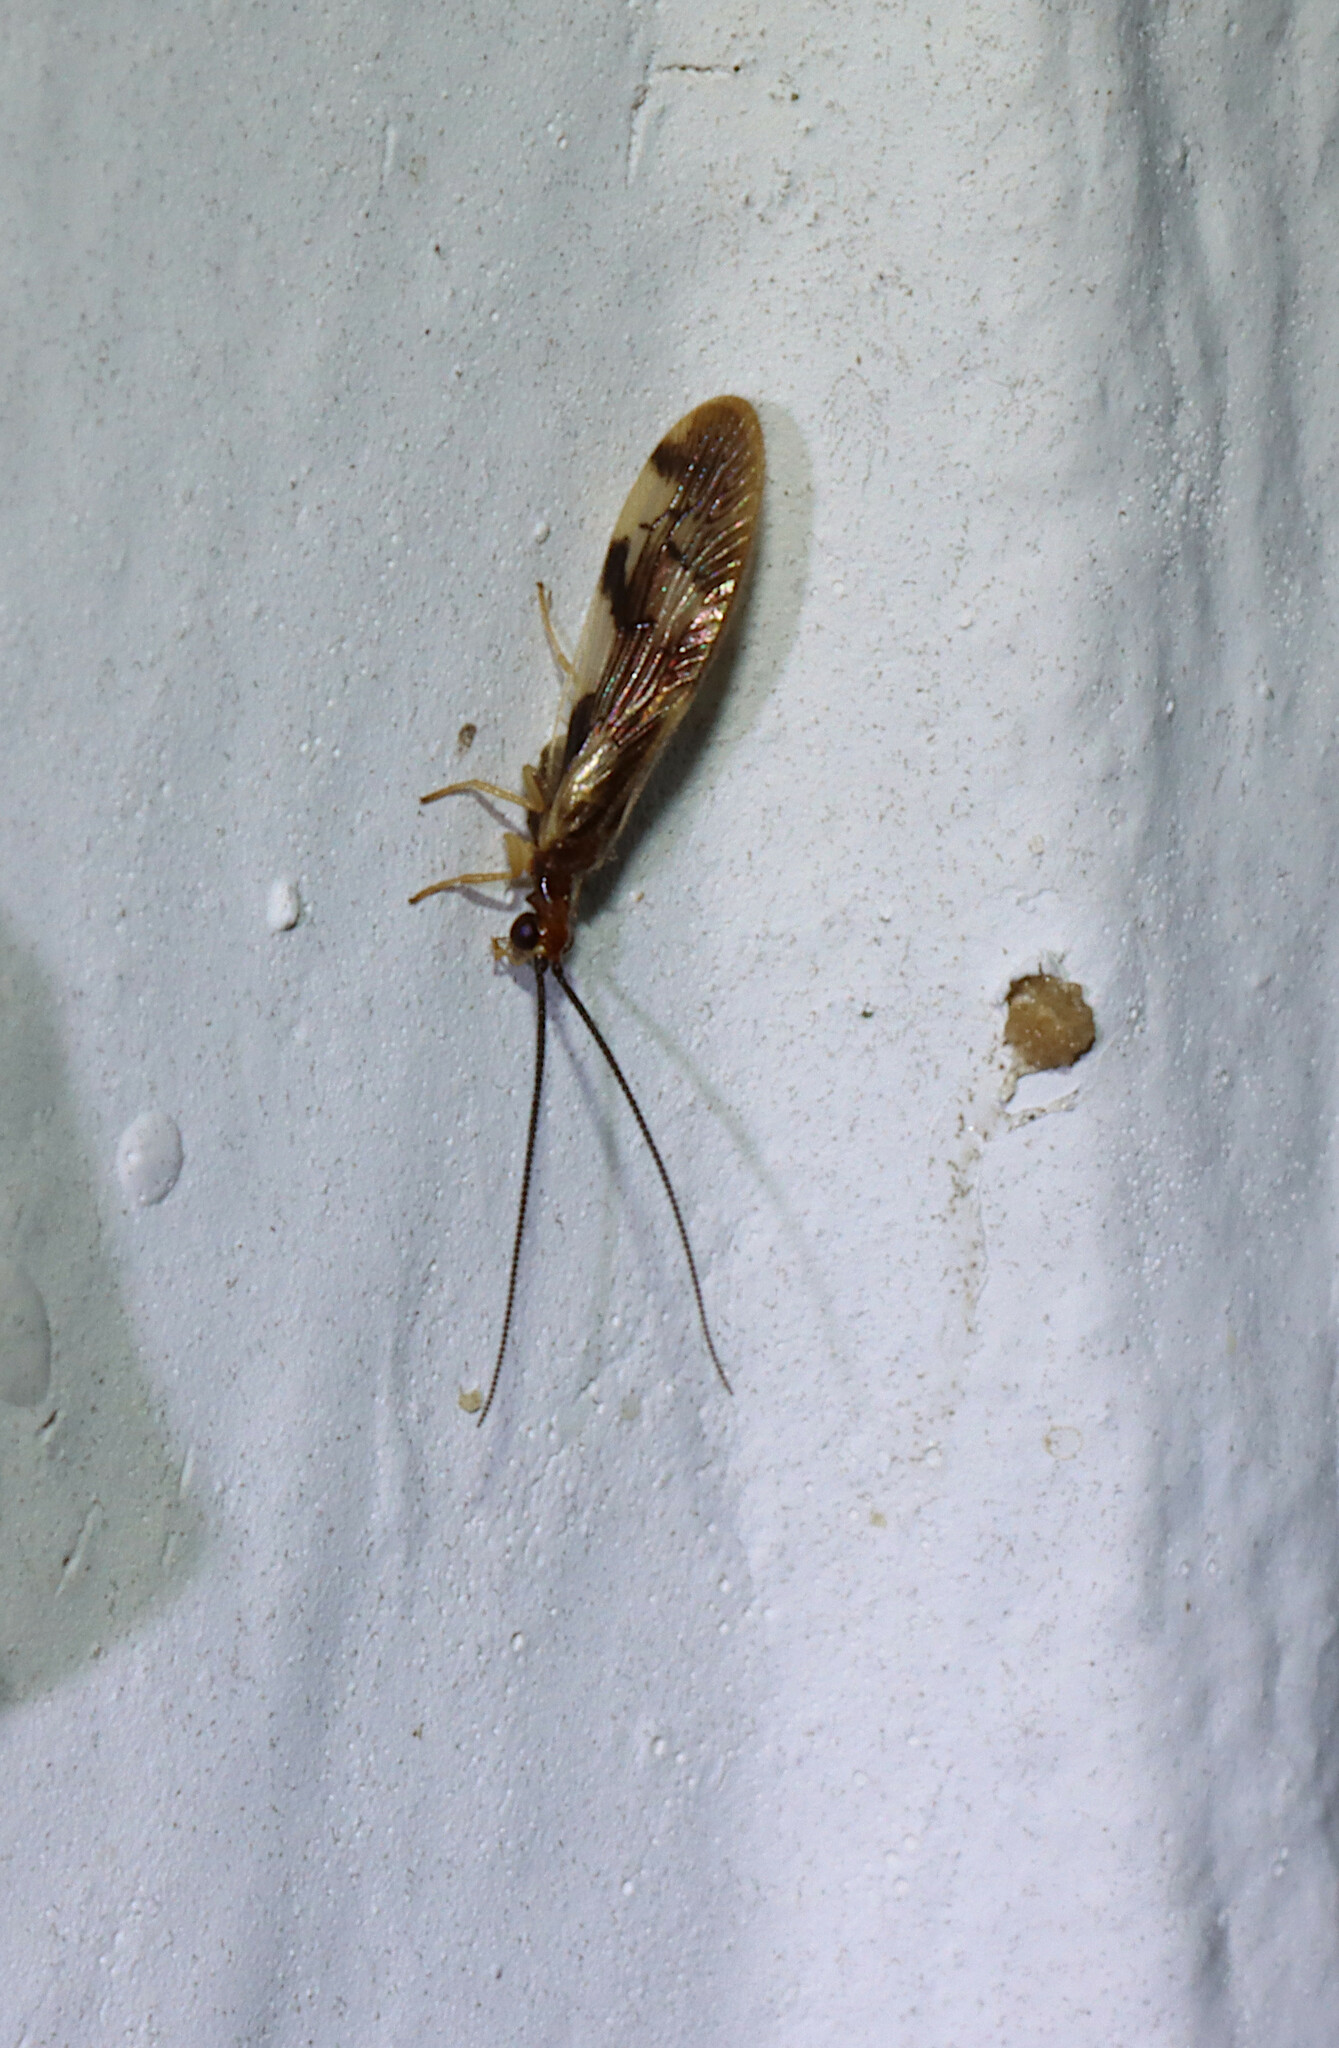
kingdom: Animalia
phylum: Arthropoda
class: Insecta
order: Neuroptera
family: Sisyridae
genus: Climacia
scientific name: Climacia areolaris
